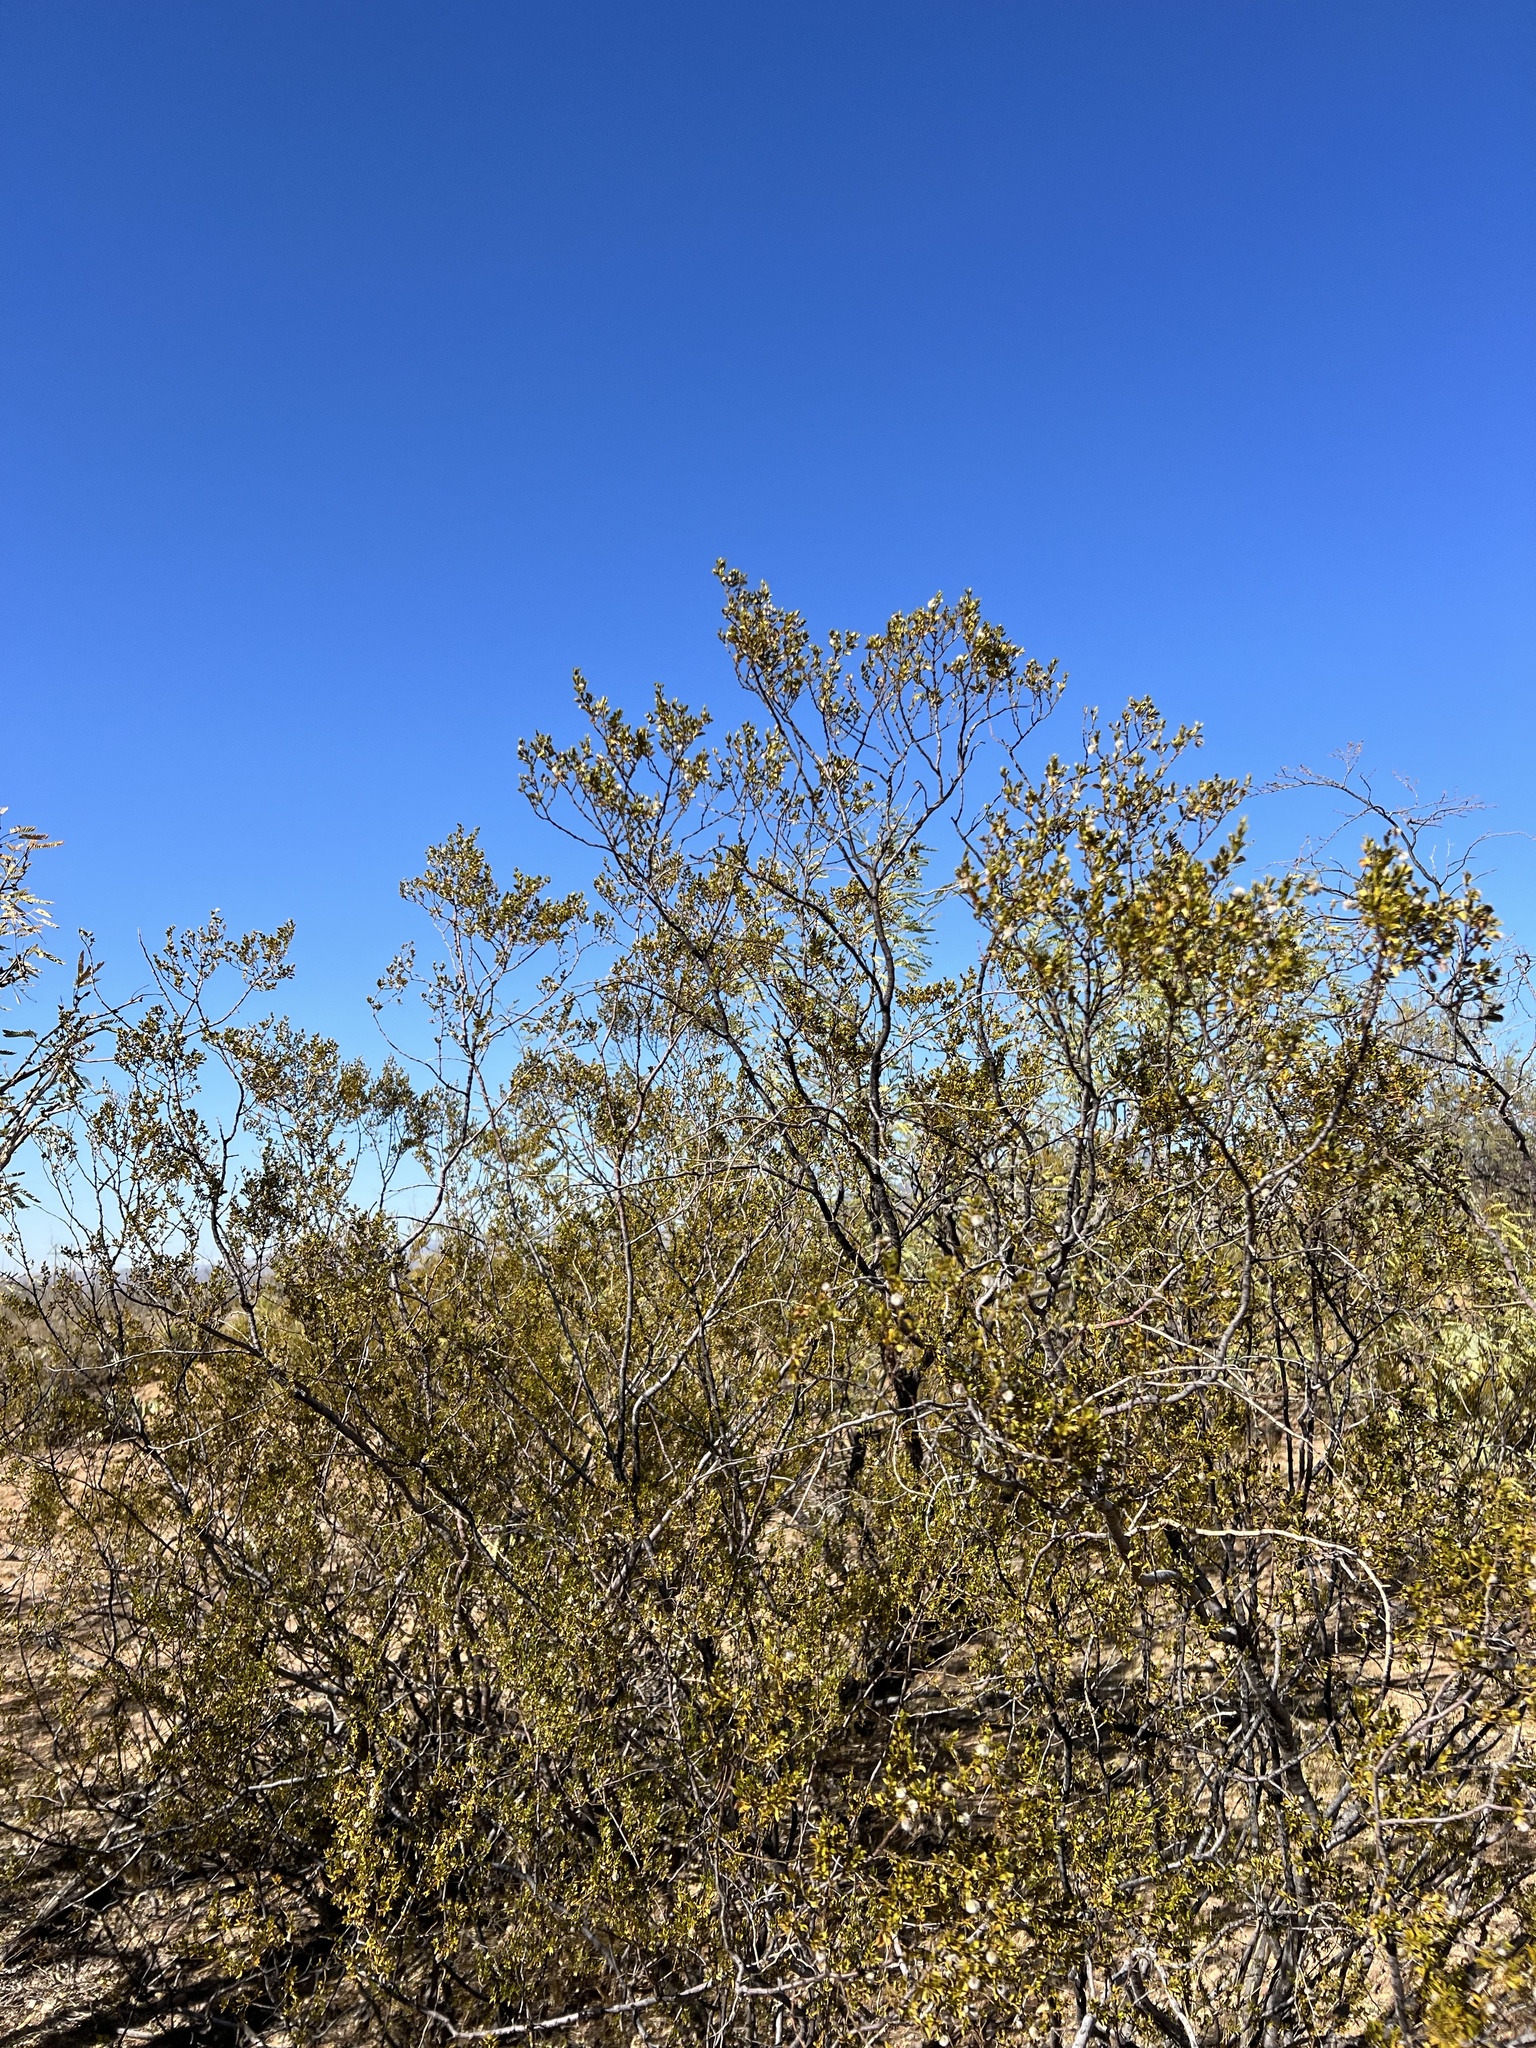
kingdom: Plantae
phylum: Tracheophyta
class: Magnoliopsida
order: Zygophyllales
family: Zygophyllaceae
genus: Larrea
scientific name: Larrea tridentata
